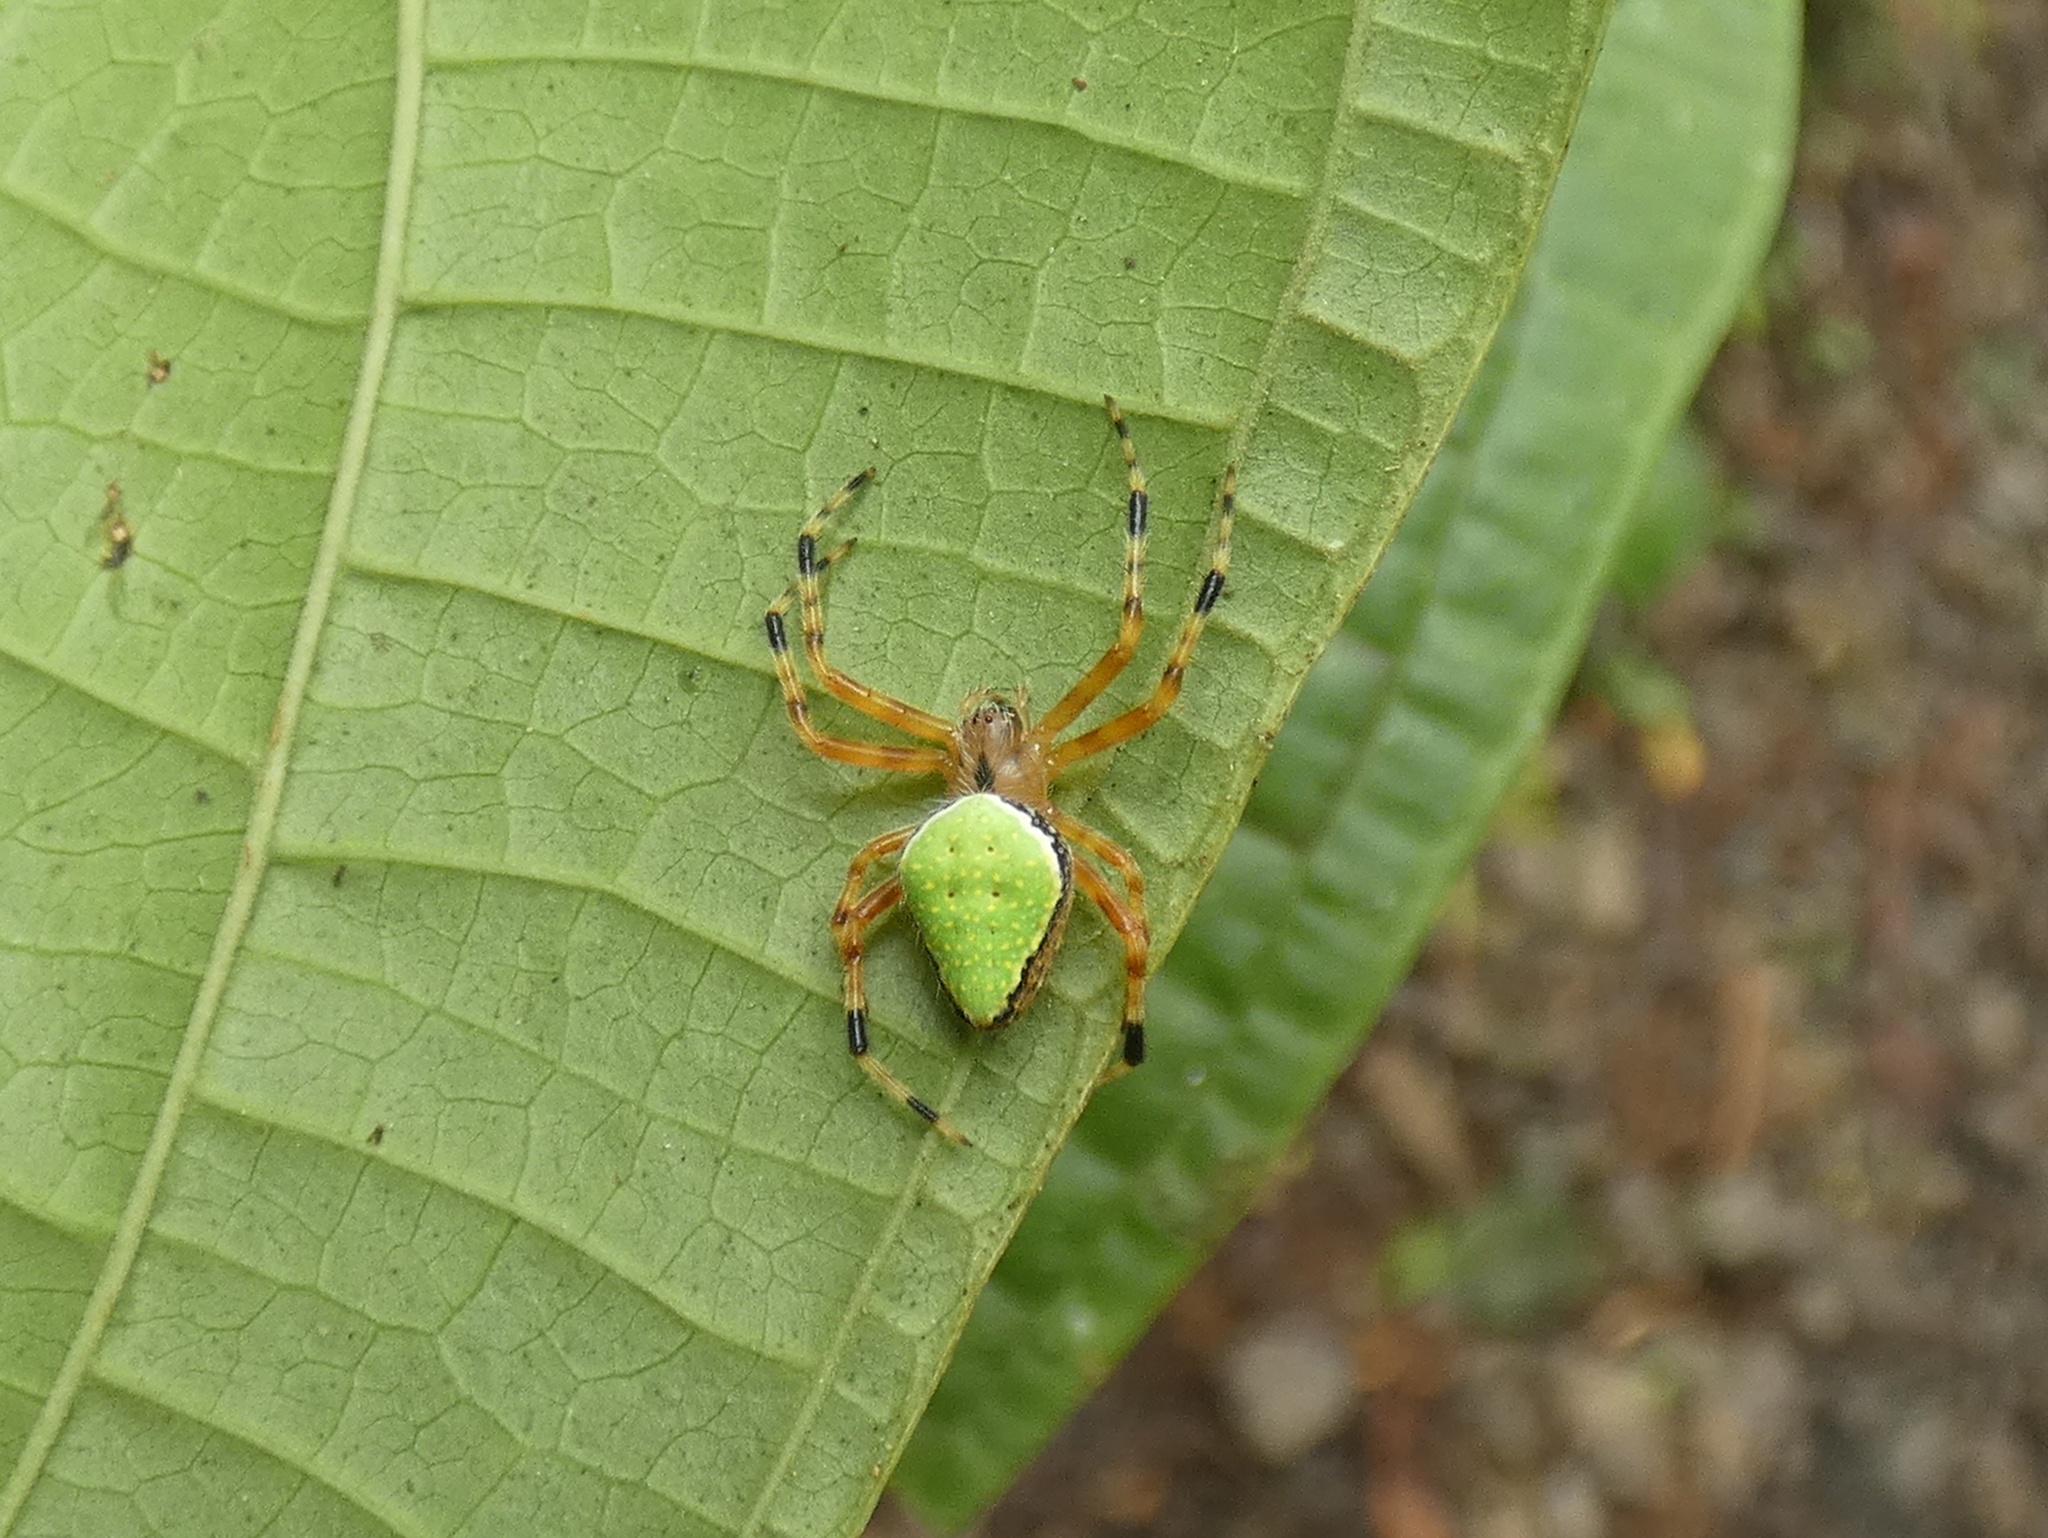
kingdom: Animalia
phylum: Arthropoda
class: Arachnida
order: Araneae
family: Araneidae
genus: Eriophora
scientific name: Eriophora nephiloides
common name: Orb weavers
